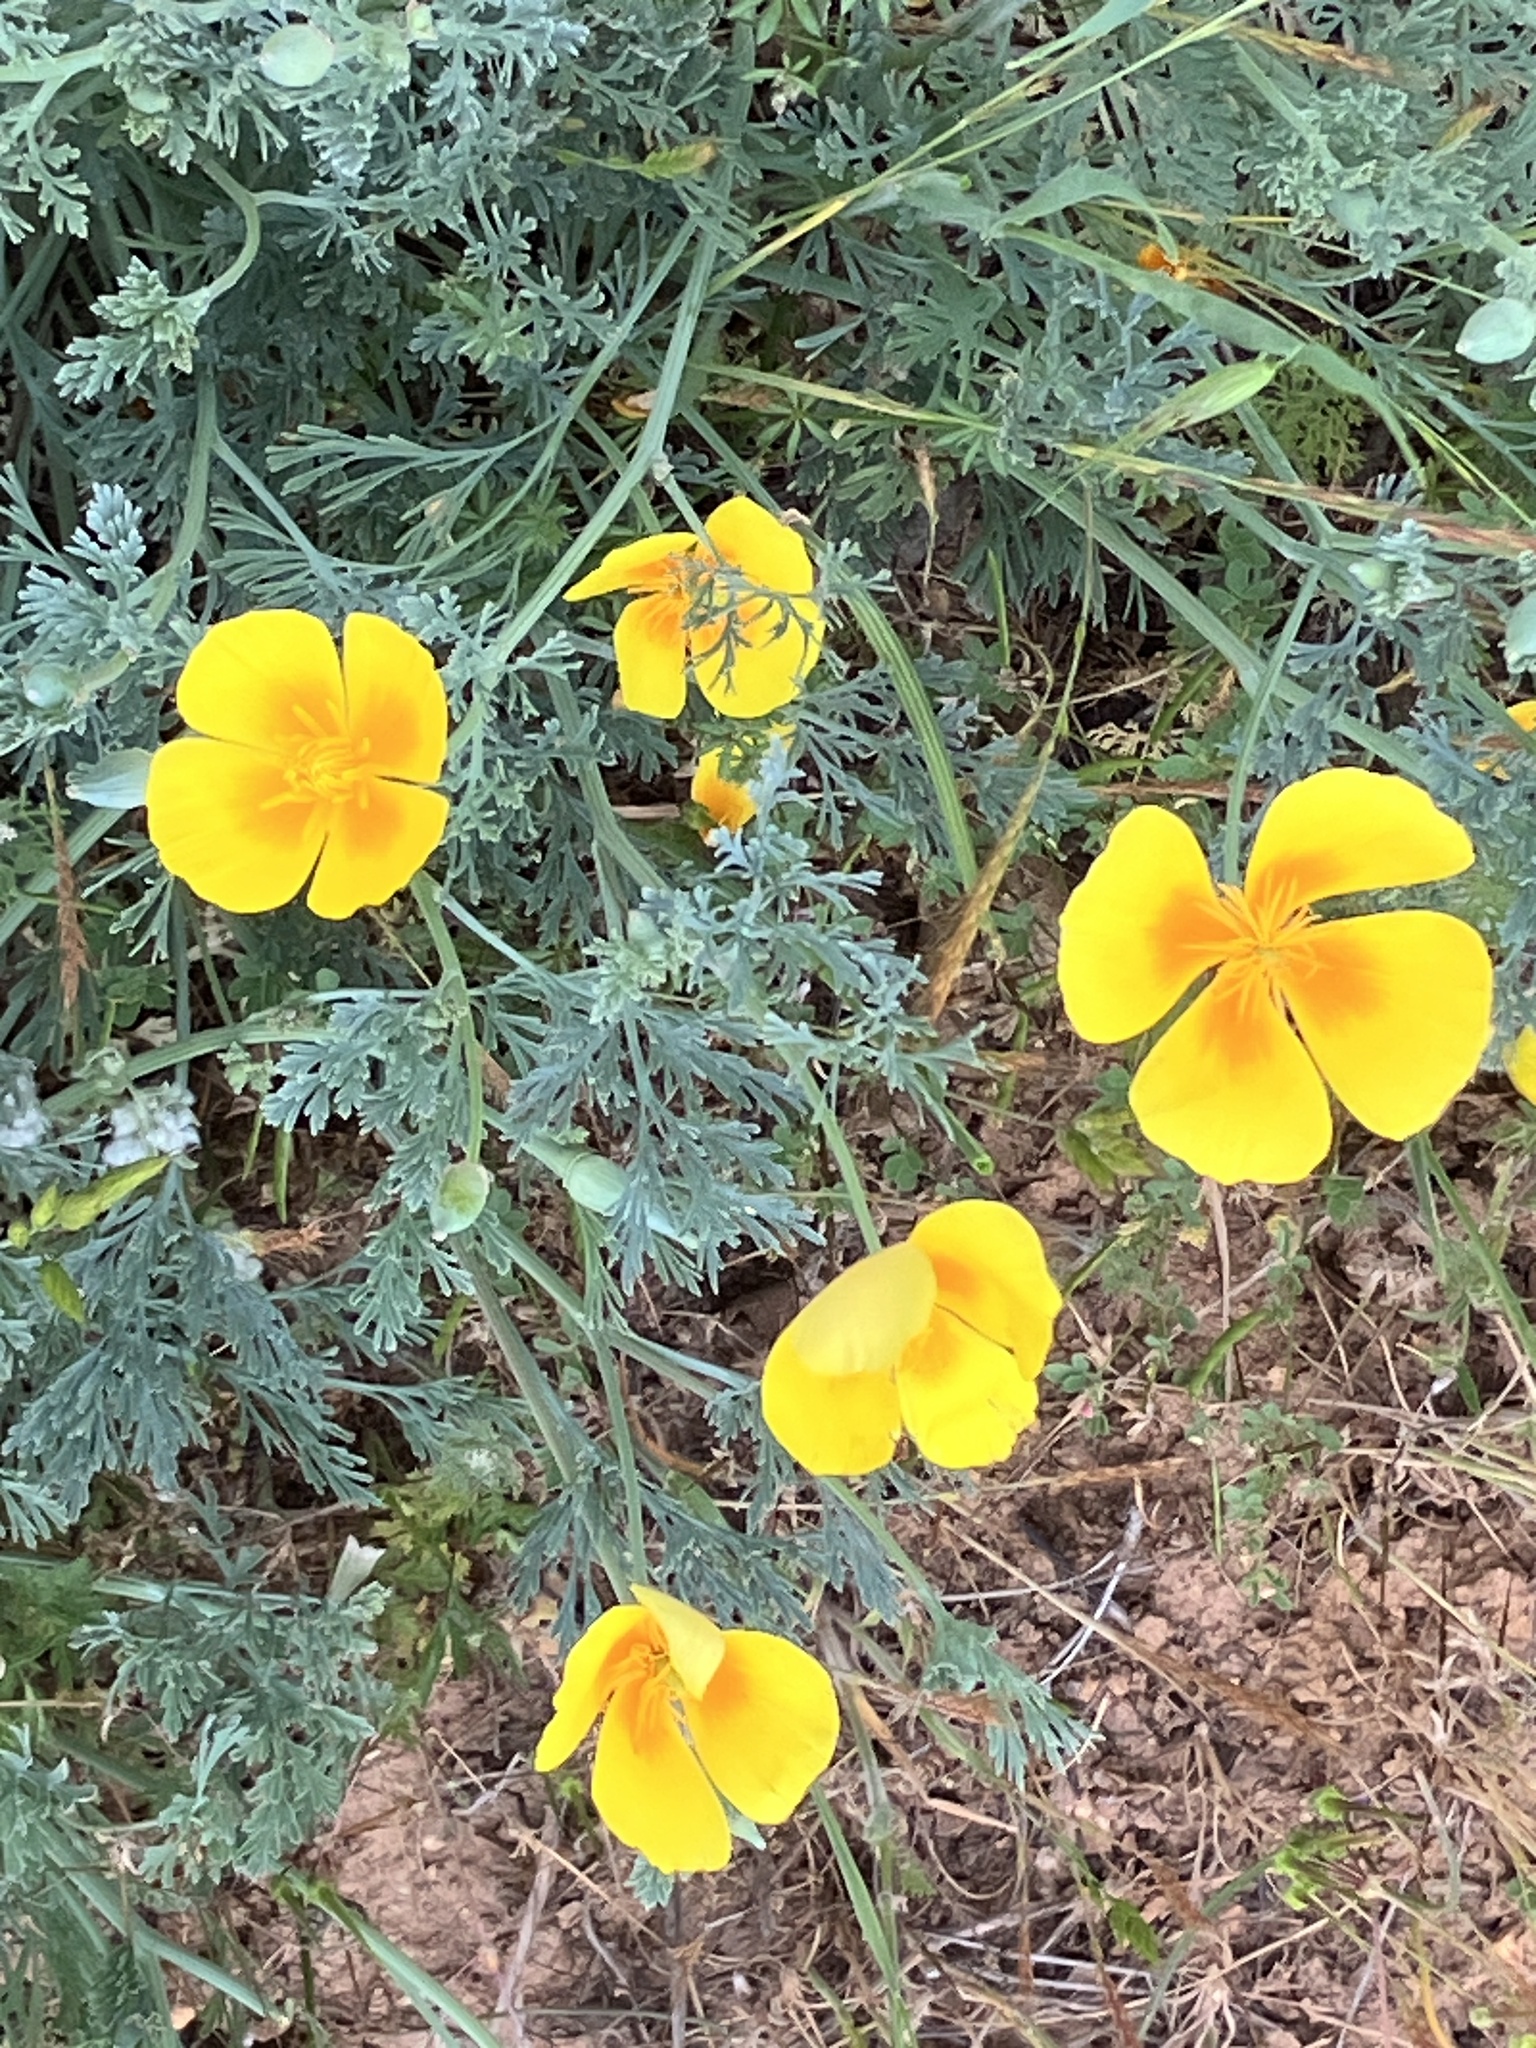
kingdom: Plantae
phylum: Tracheophyta
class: Magnoliopsida
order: Ranunculales
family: Papaveraceae
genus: Eschscholzia
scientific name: Eschscholzia californica
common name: California poppy
